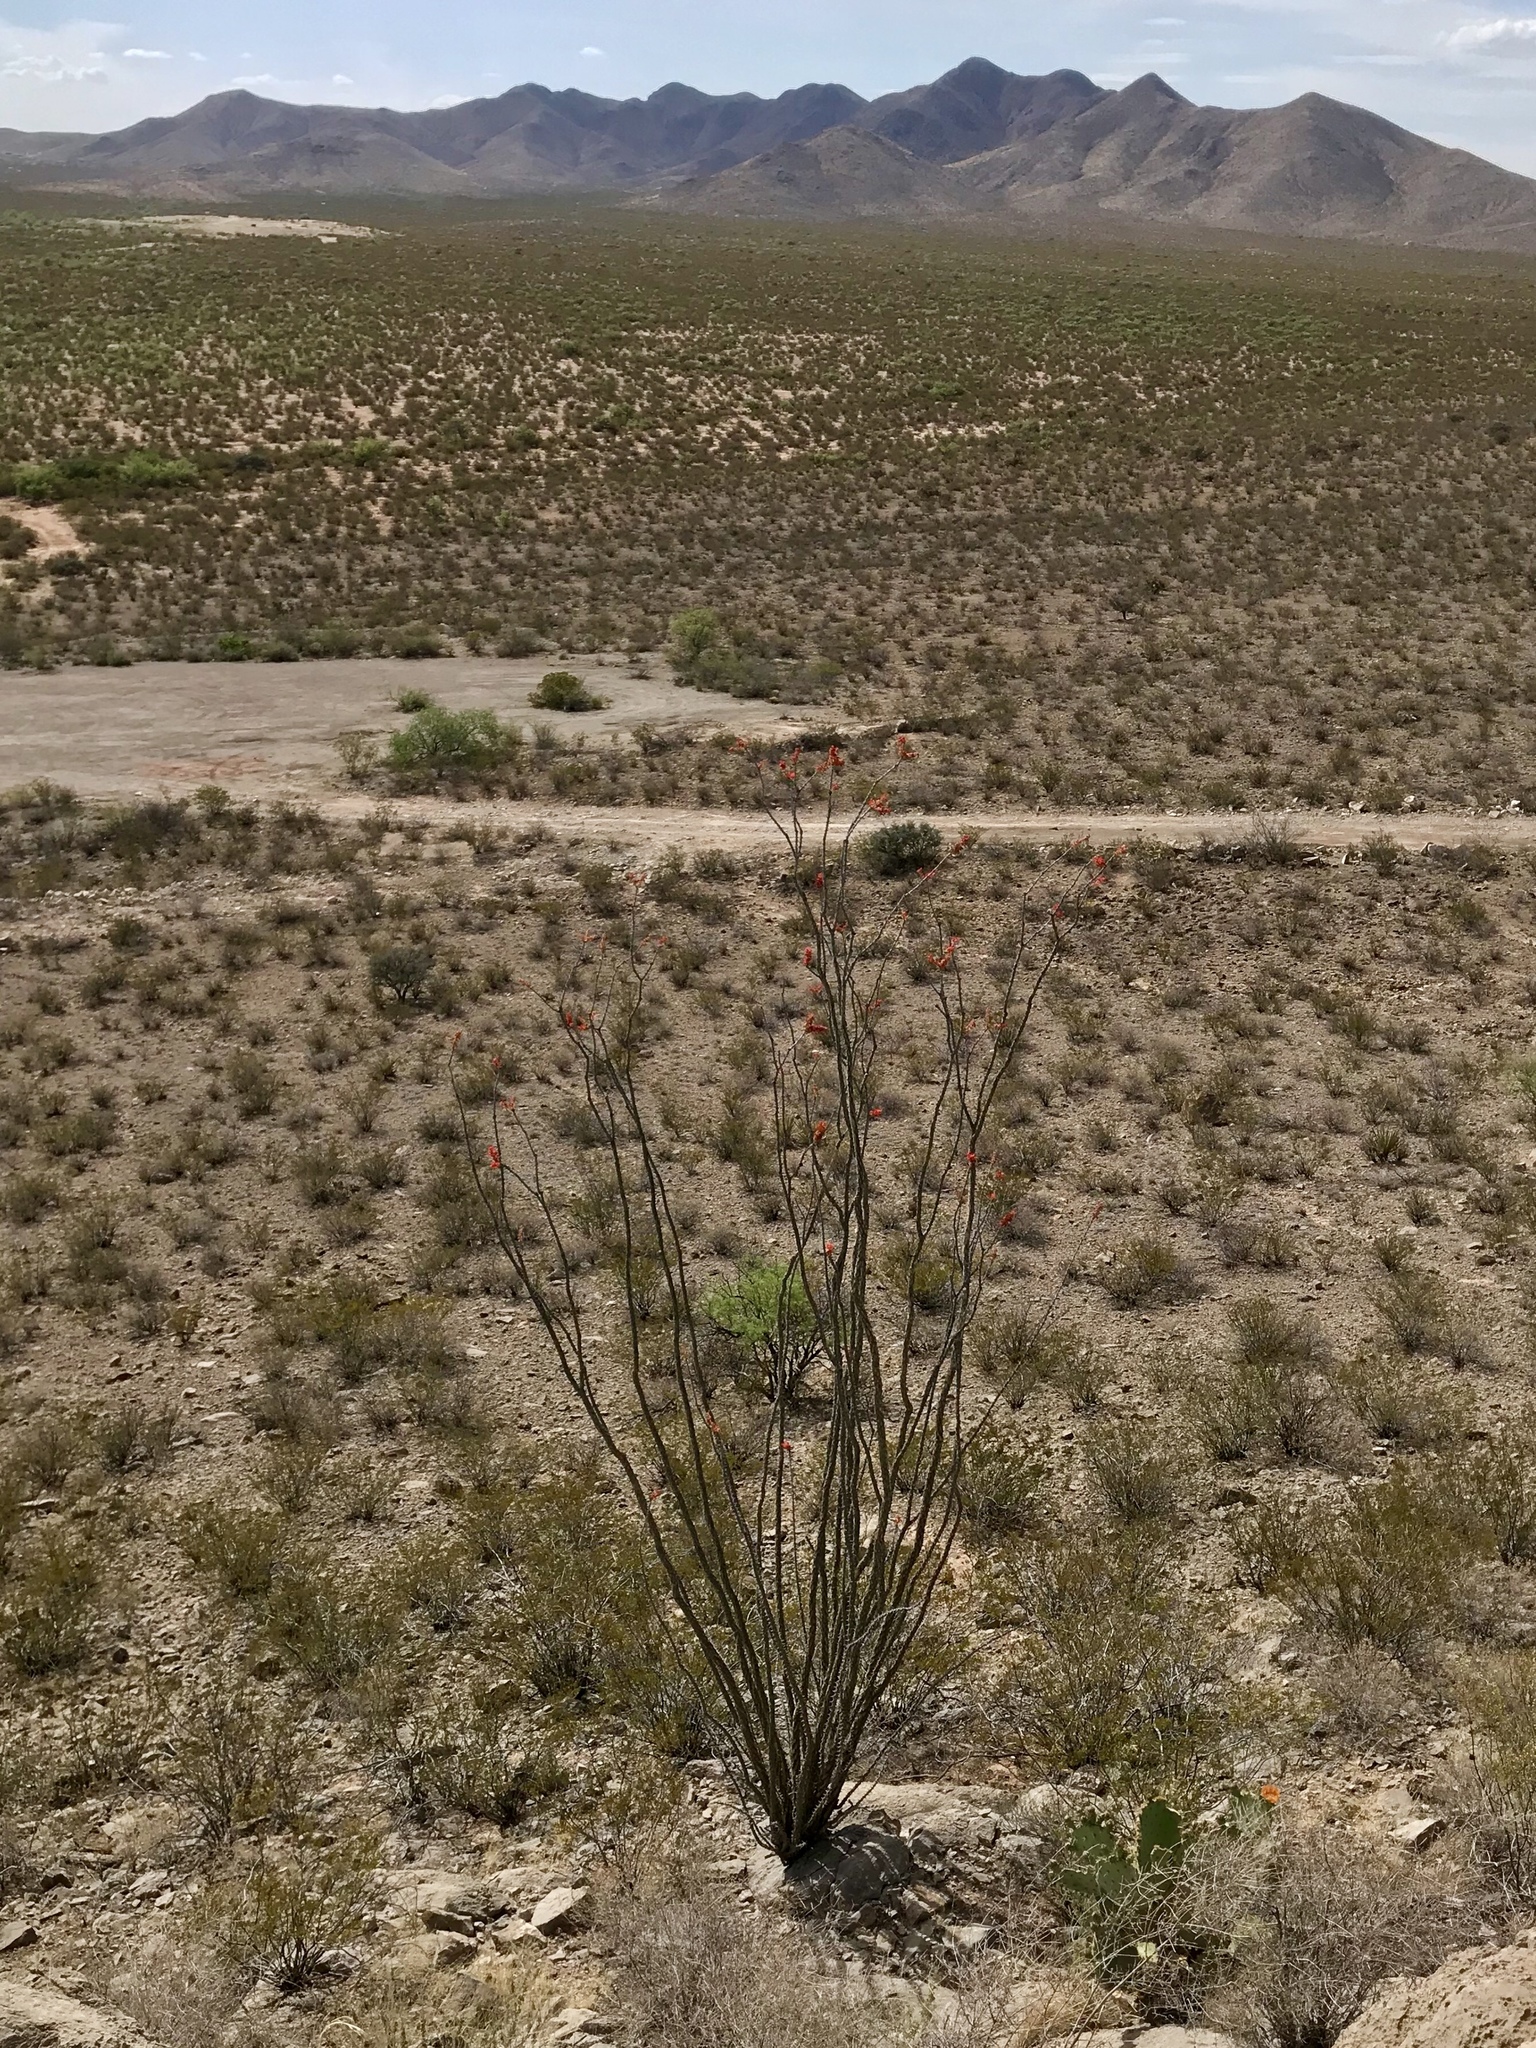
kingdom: Plantae
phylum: Tracheophyta
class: Magnoliopsida
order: Ericales
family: Fouquieriaceae
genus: Fouquieria
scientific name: Fouquieria splendens
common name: Vine-cactus
